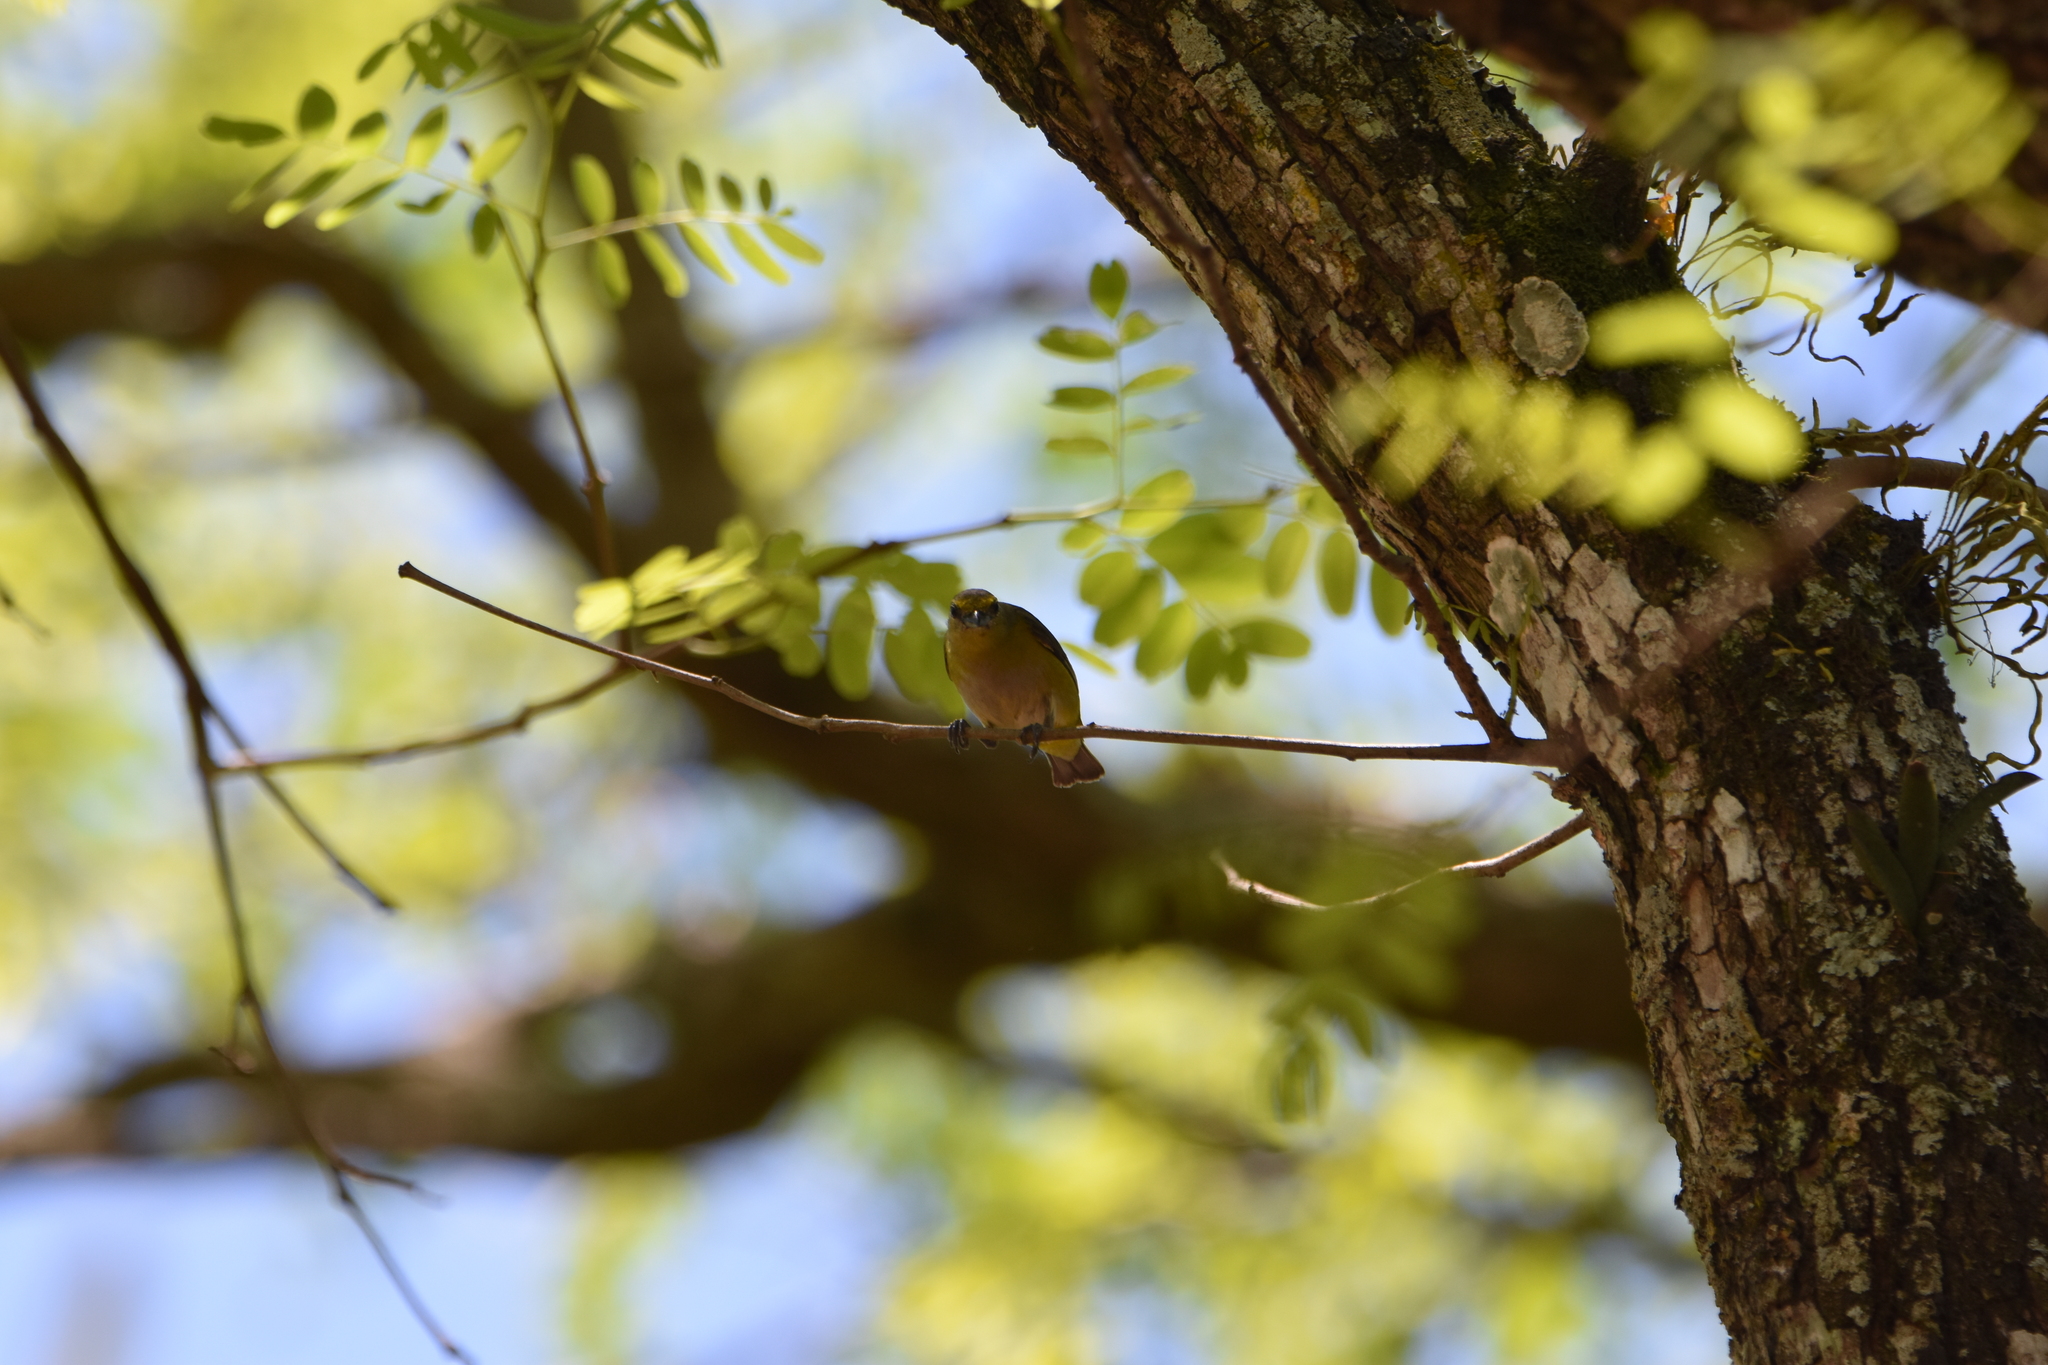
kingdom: Animalia
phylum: Chordata
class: Aves
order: Passeriformes
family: Fringillidae
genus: Euphonia
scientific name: Euphonia violacea
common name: Violaceous euphonia
